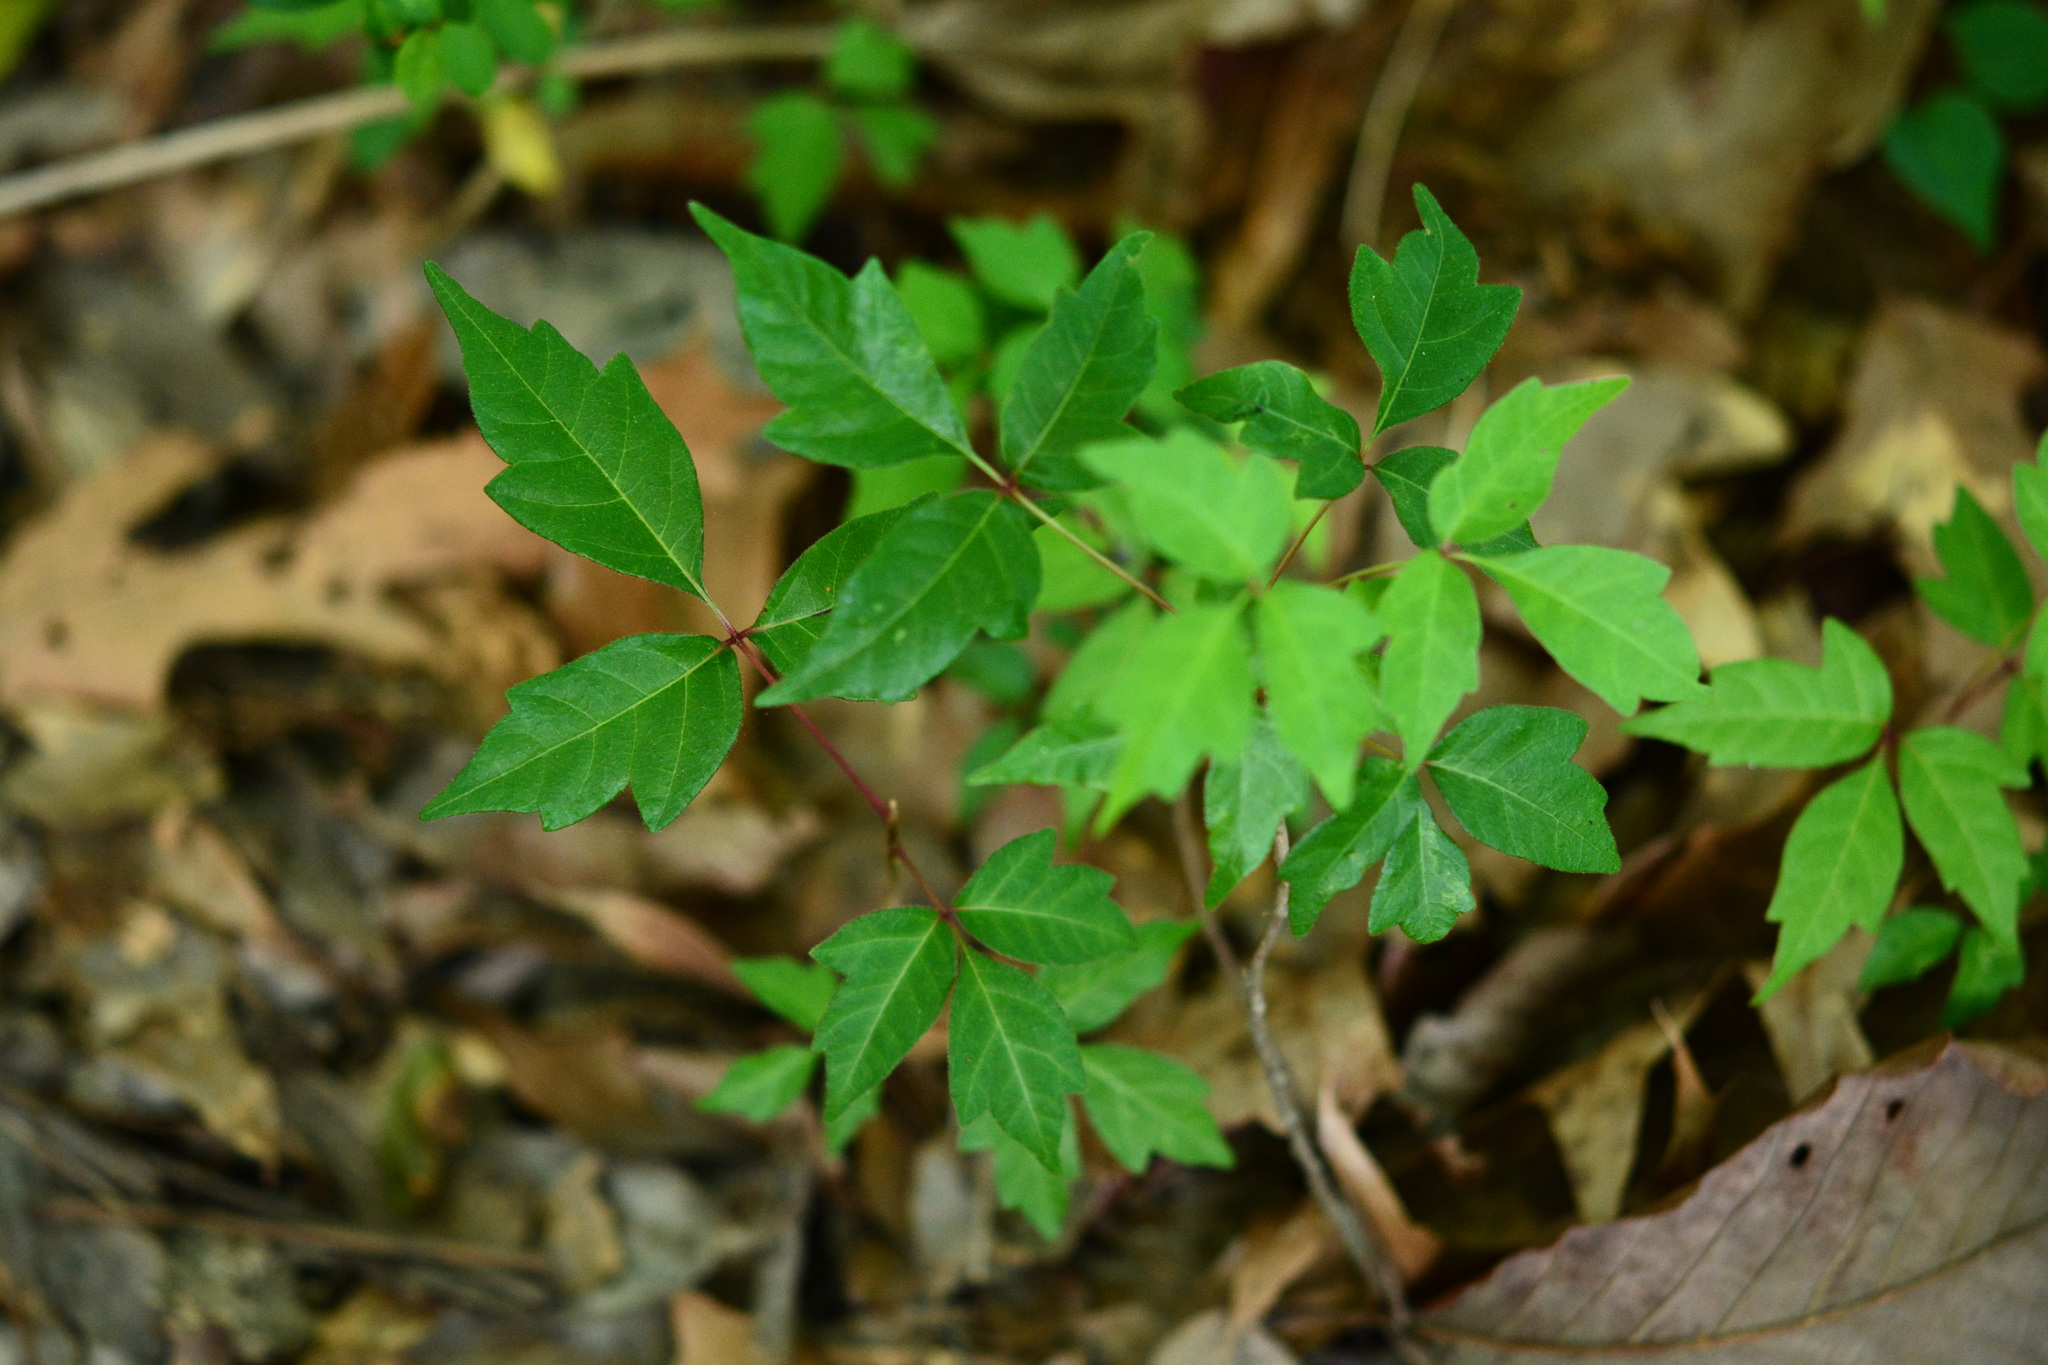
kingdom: Plantae
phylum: Tracheophyta
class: Magnoliopsida
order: Sapindales
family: Anacardiaceae
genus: Toxicodendron
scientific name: Toxicodendron radicans
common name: Poison ivy
